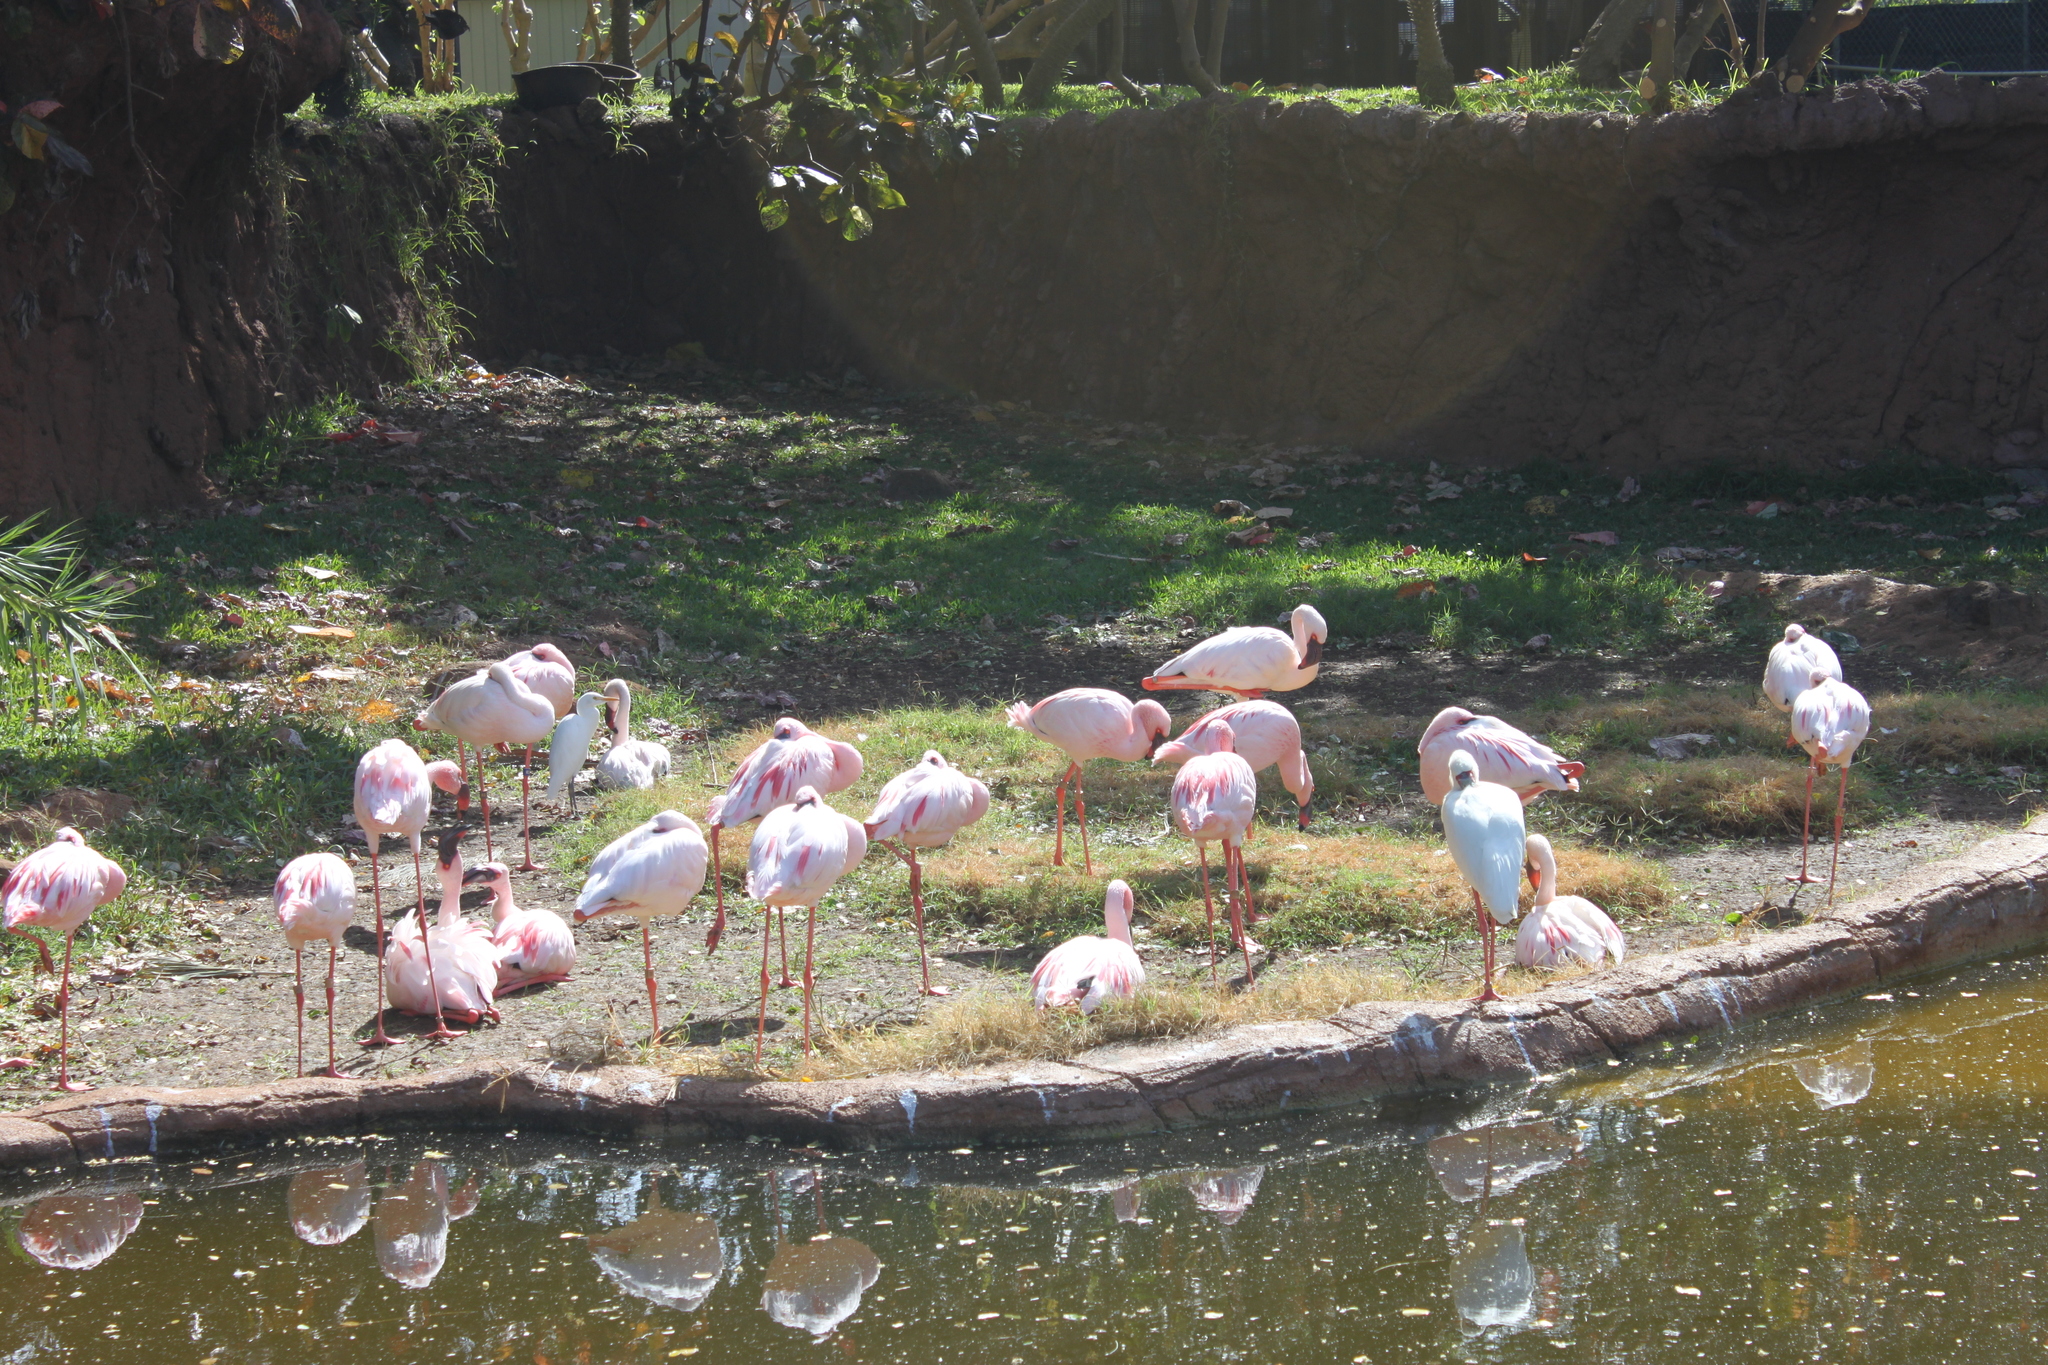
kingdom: Animalia
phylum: Chordata
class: Aves
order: Pelecaniformes
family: Ardeidae
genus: Bubulcus
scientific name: Bubulcus ibis
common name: Cattle egret
